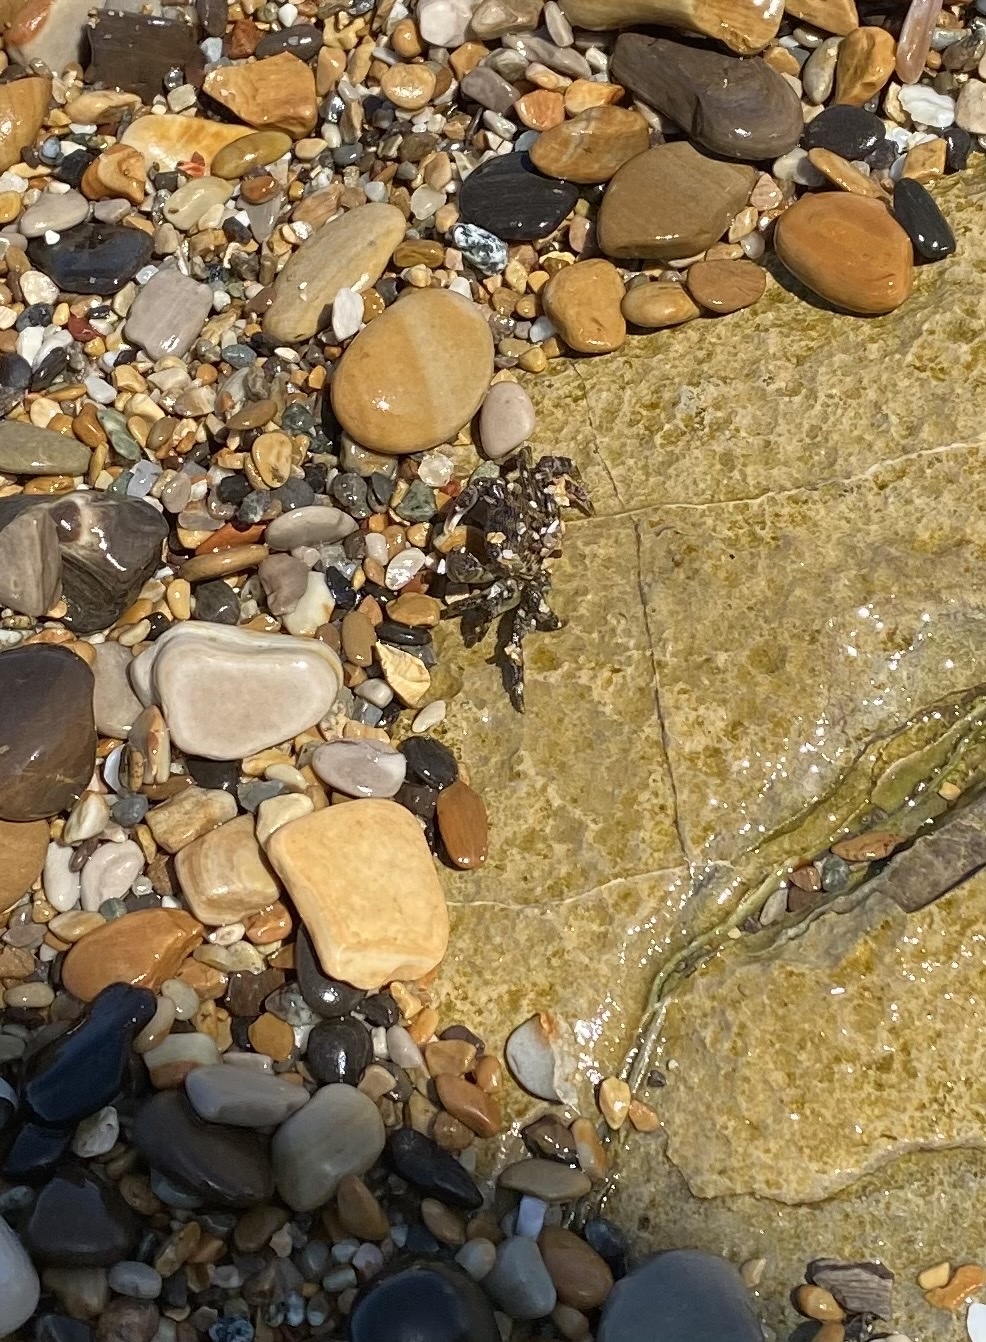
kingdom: Animalia
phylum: Arthropoda
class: Malacostraca
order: Decapoda
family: Grapsidae
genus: Pachygrapsus
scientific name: Pachygrapsus crassipes
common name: Striped shore crab
